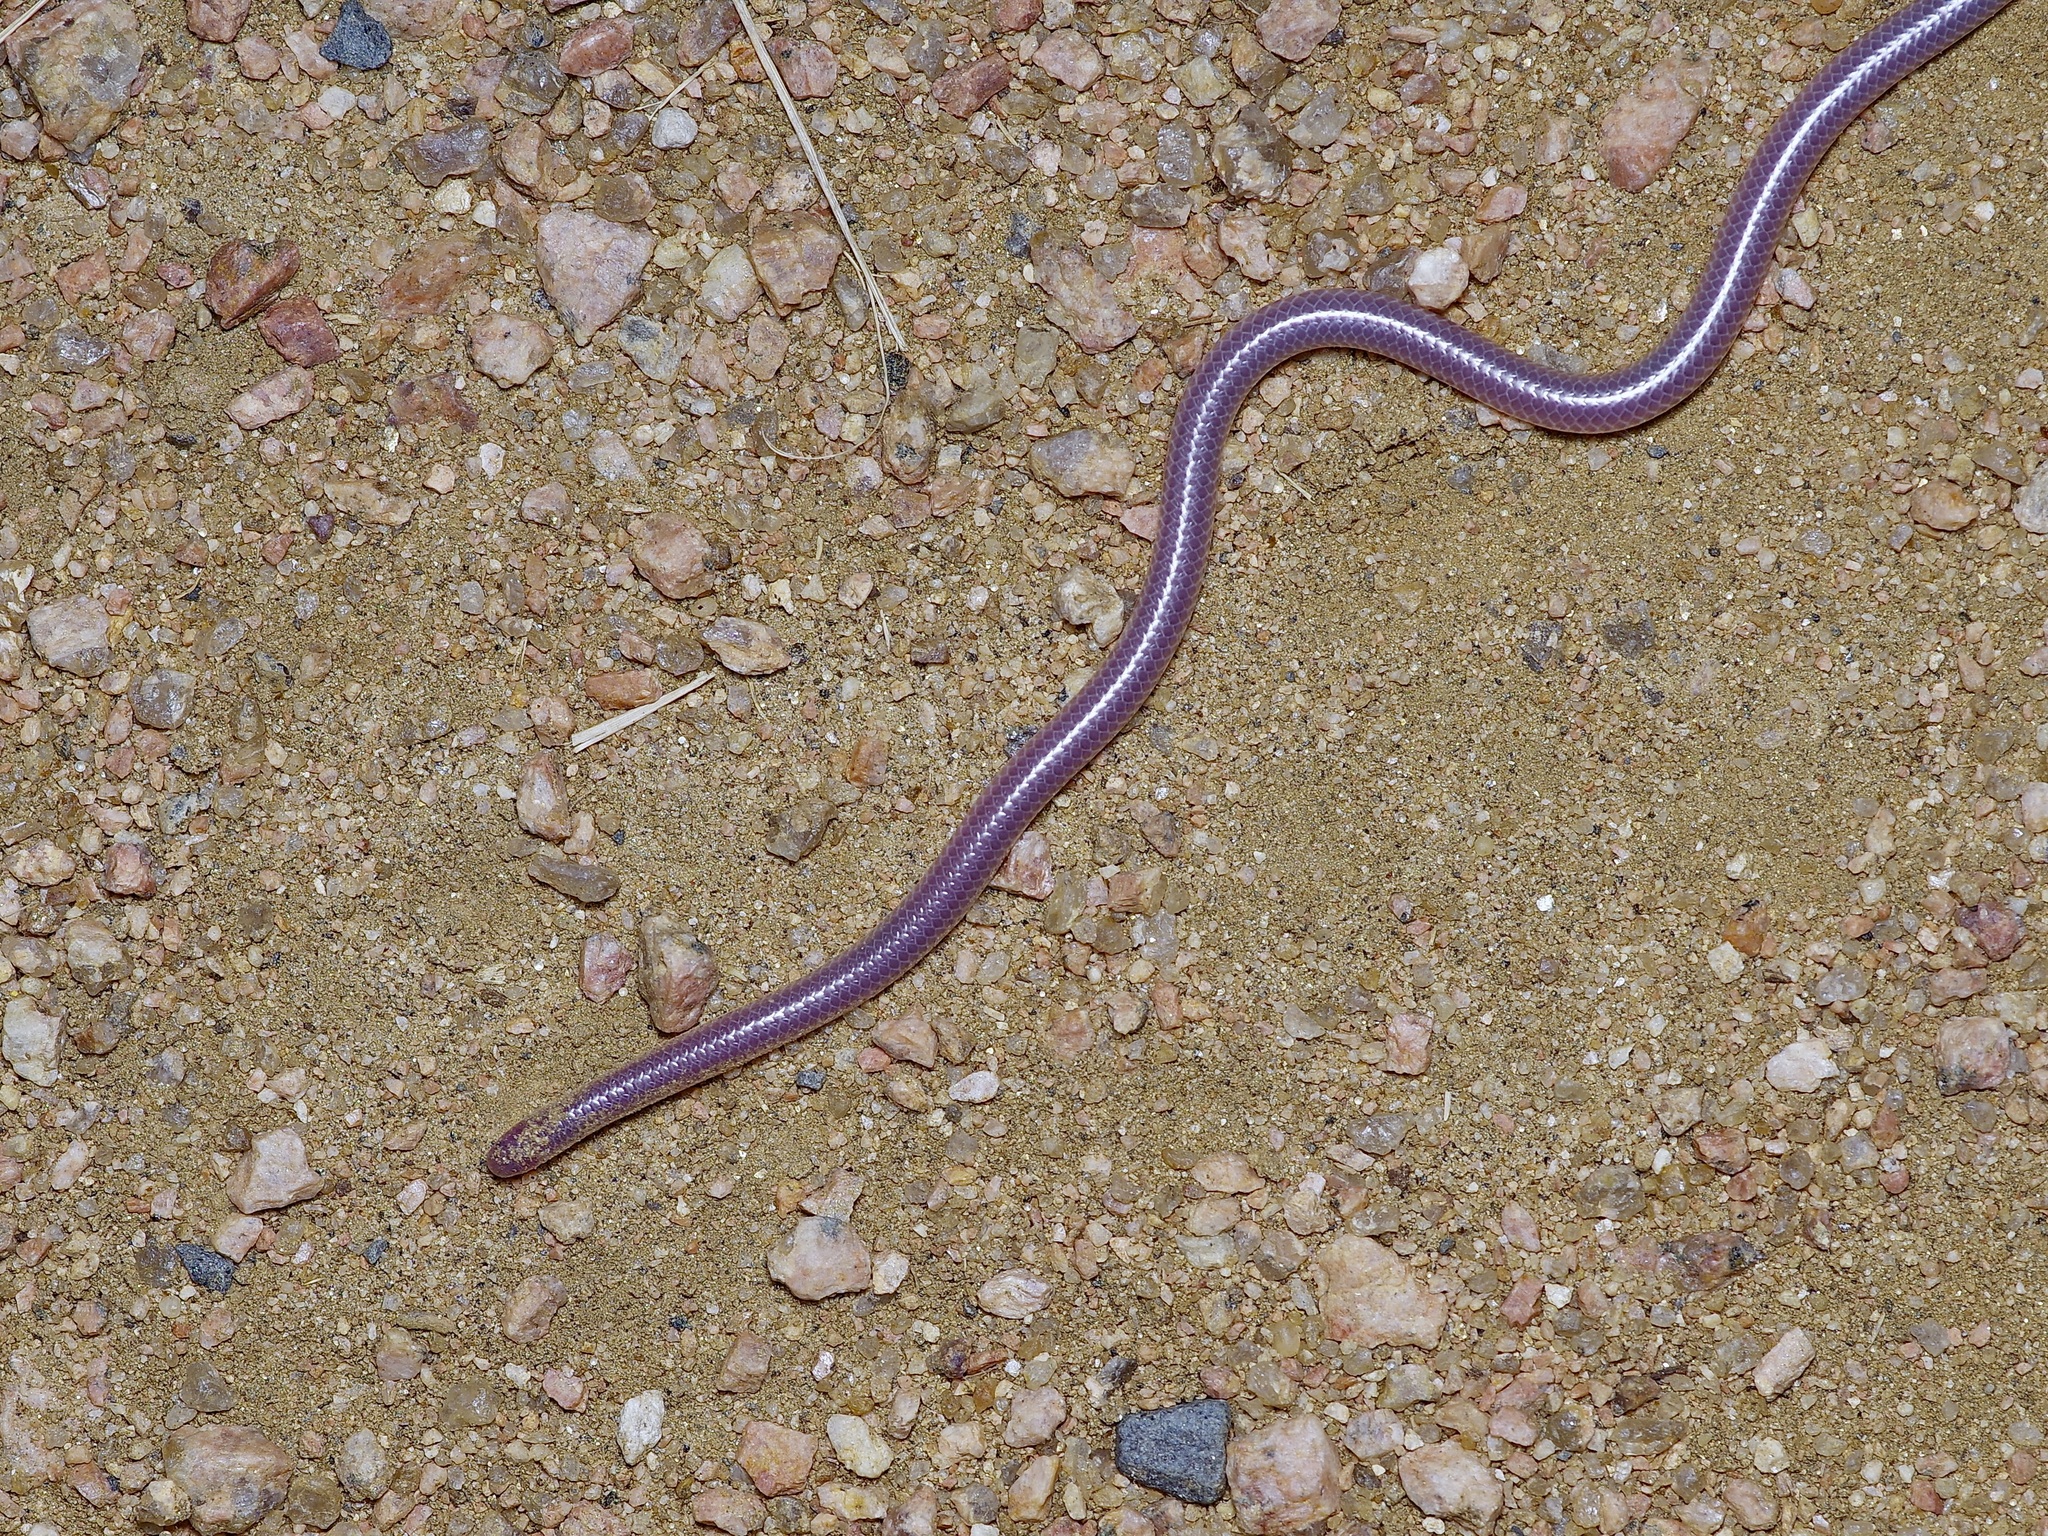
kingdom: Animalia
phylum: Chordata
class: Squamata
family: Leptotyphlopidae
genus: Rena
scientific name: Rena dulcis
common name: Texas blind snake
